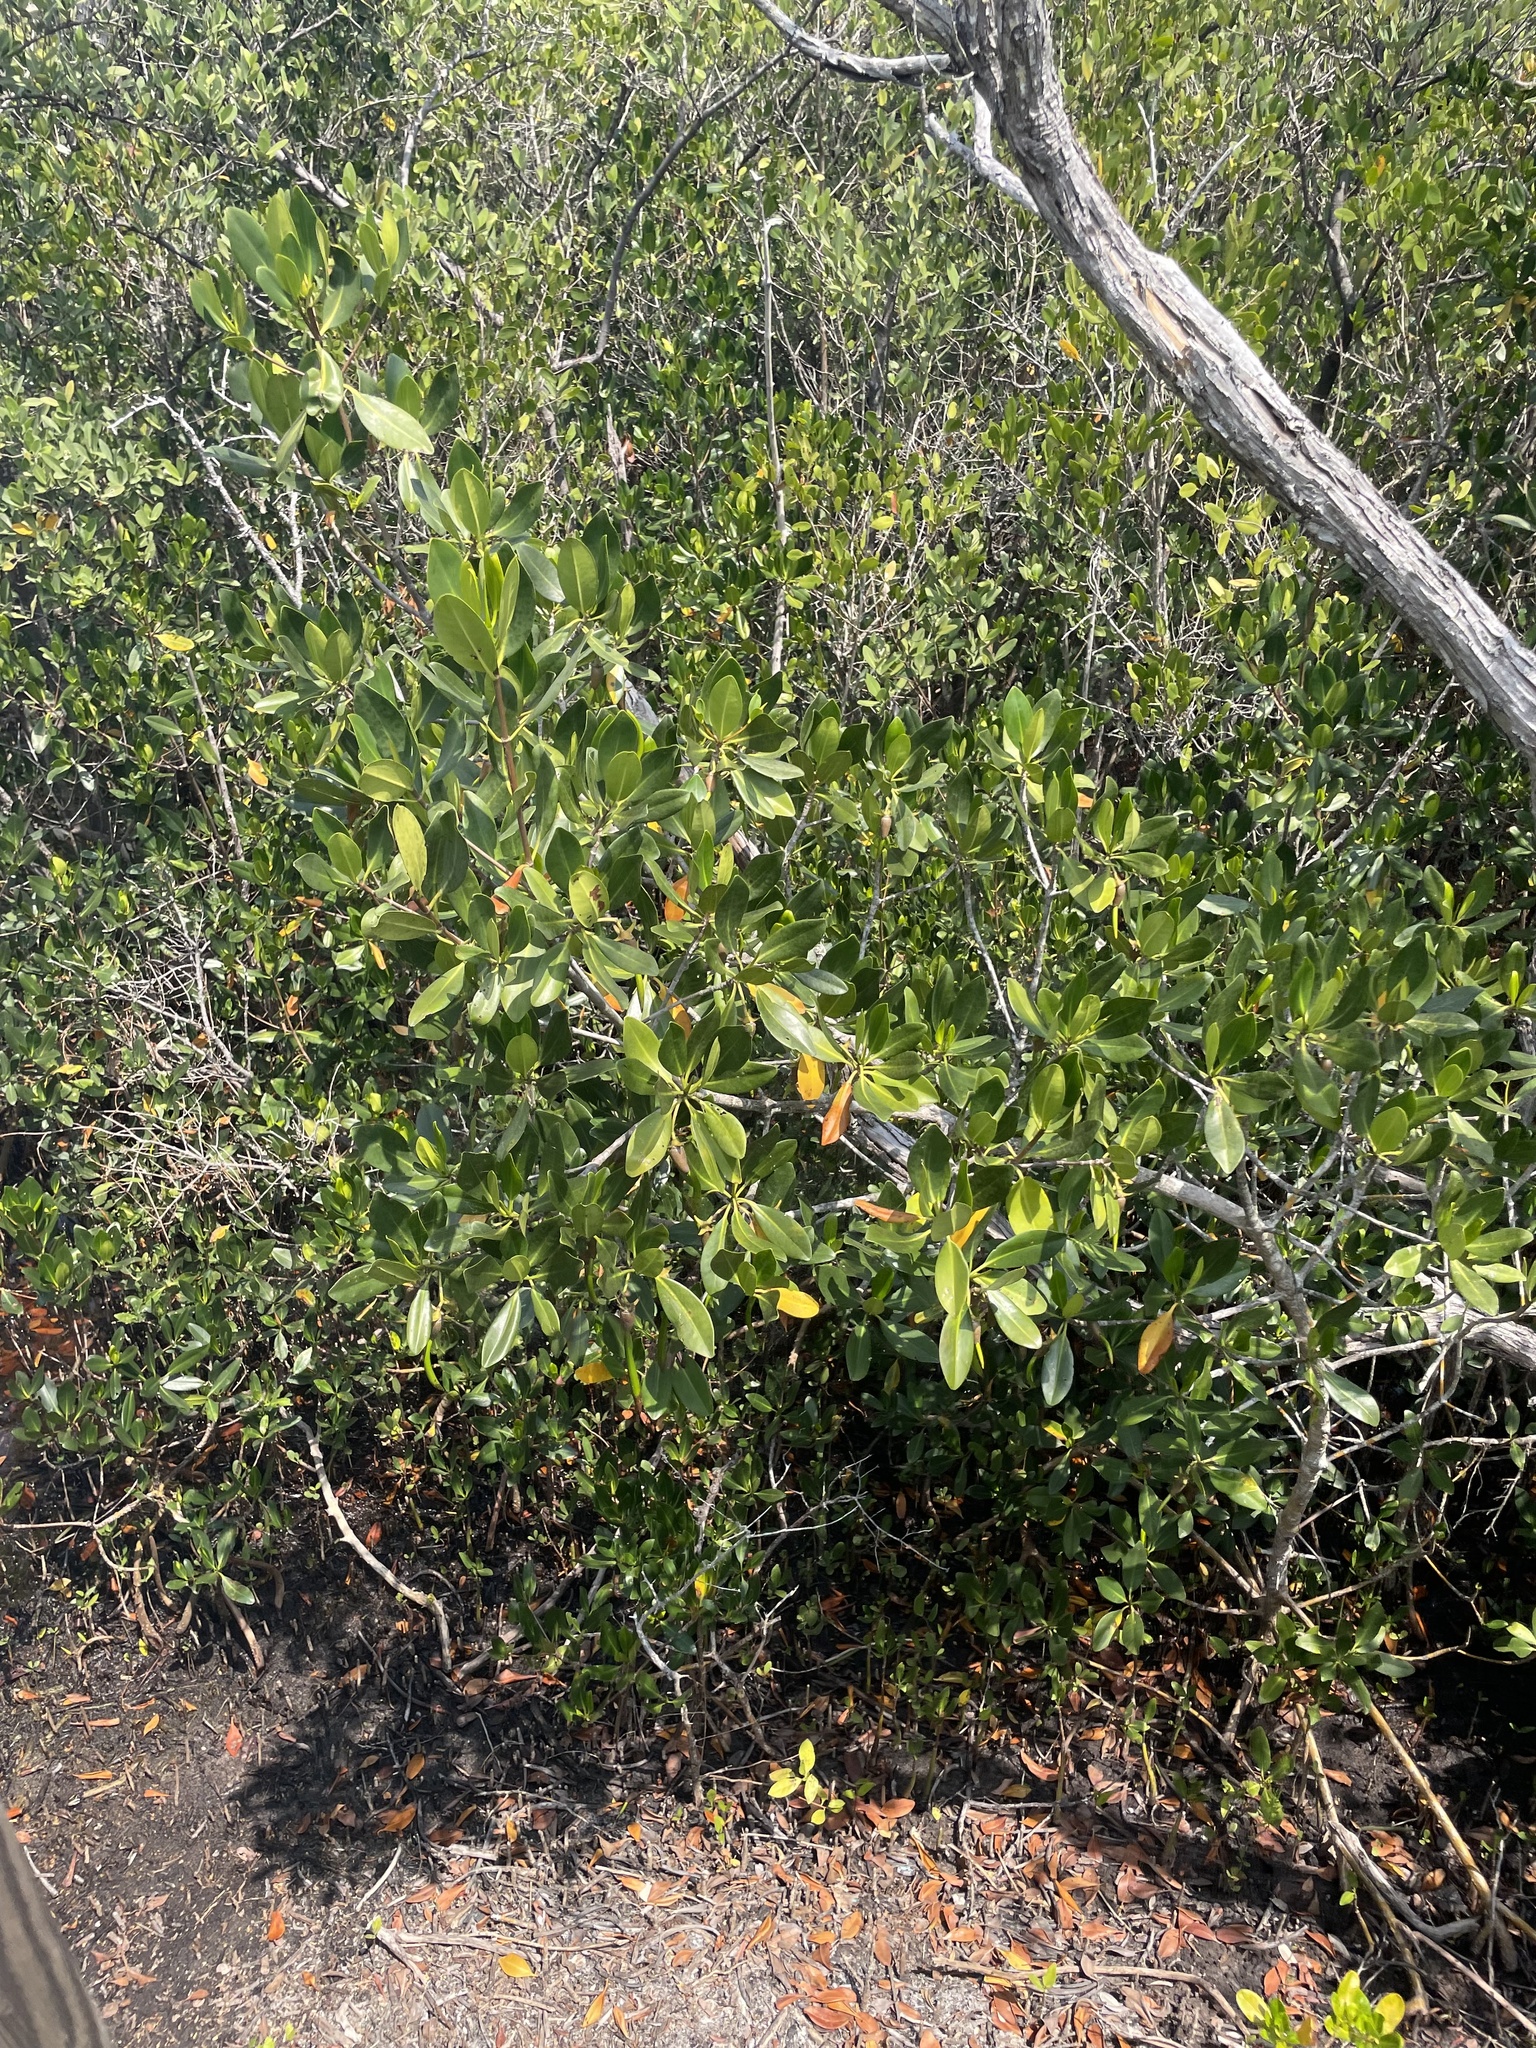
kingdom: Plantae
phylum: Tracheophyta
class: Magnoliopsida
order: Malpighiales
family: Rhizophoraceae
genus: Rhizophora
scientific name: Rhizophora mangle
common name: Red mangrove
